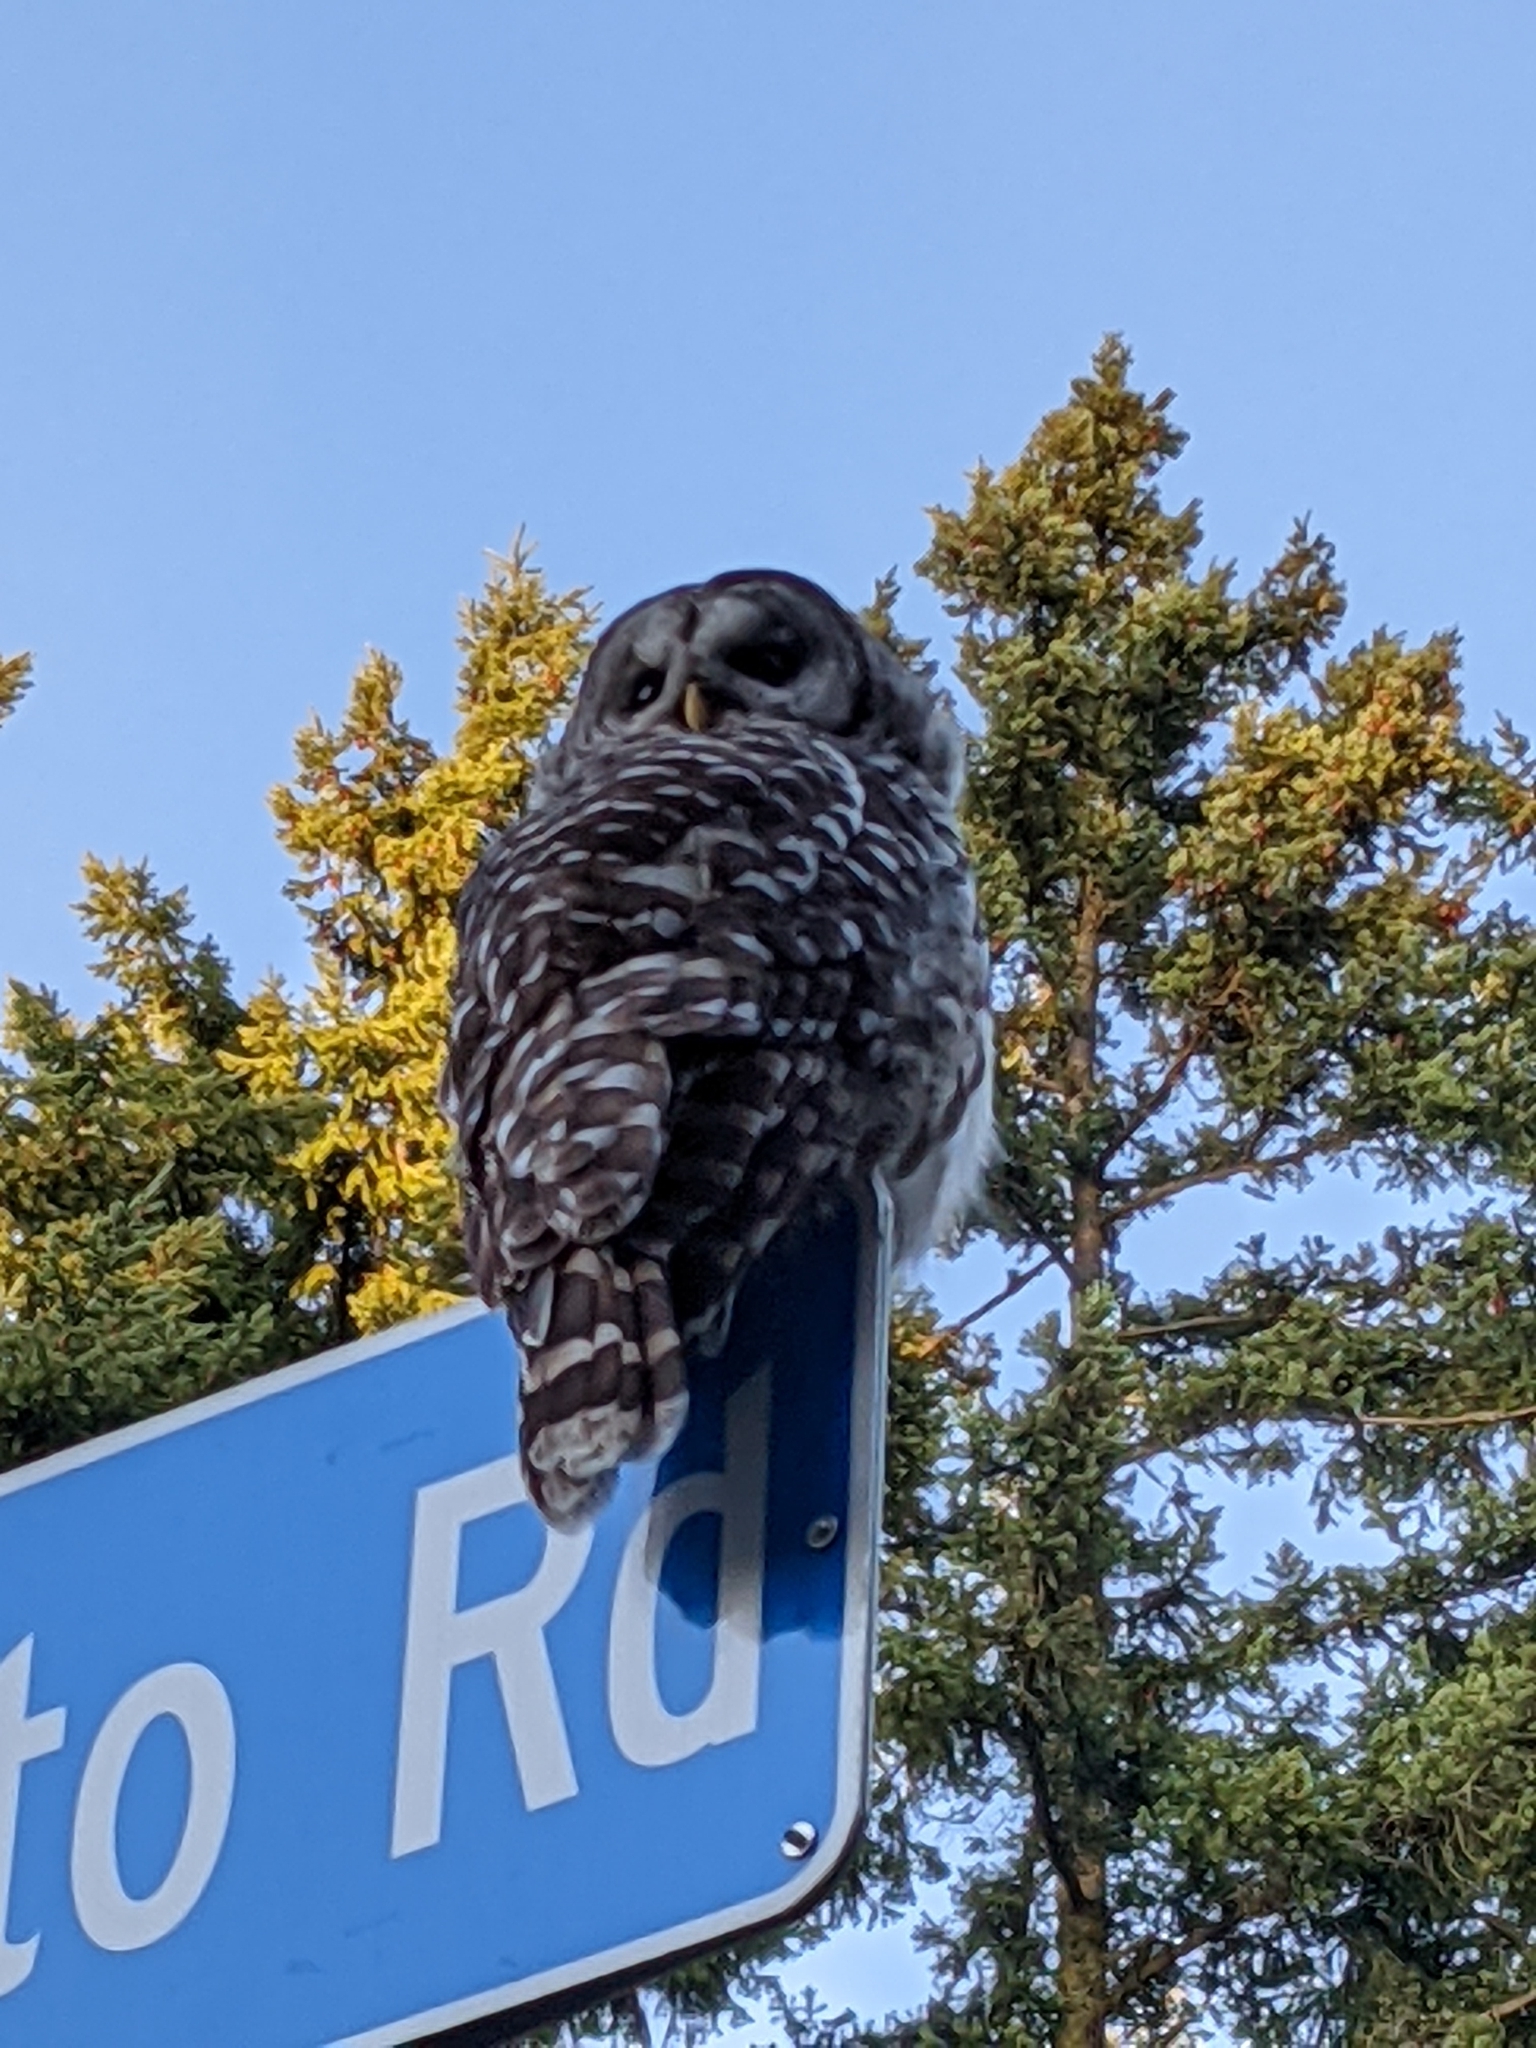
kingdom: Animalia
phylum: Chordata
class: Aves
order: Strigiformes
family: Strigidae
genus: Strix
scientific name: Strix varia
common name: Barred owl
